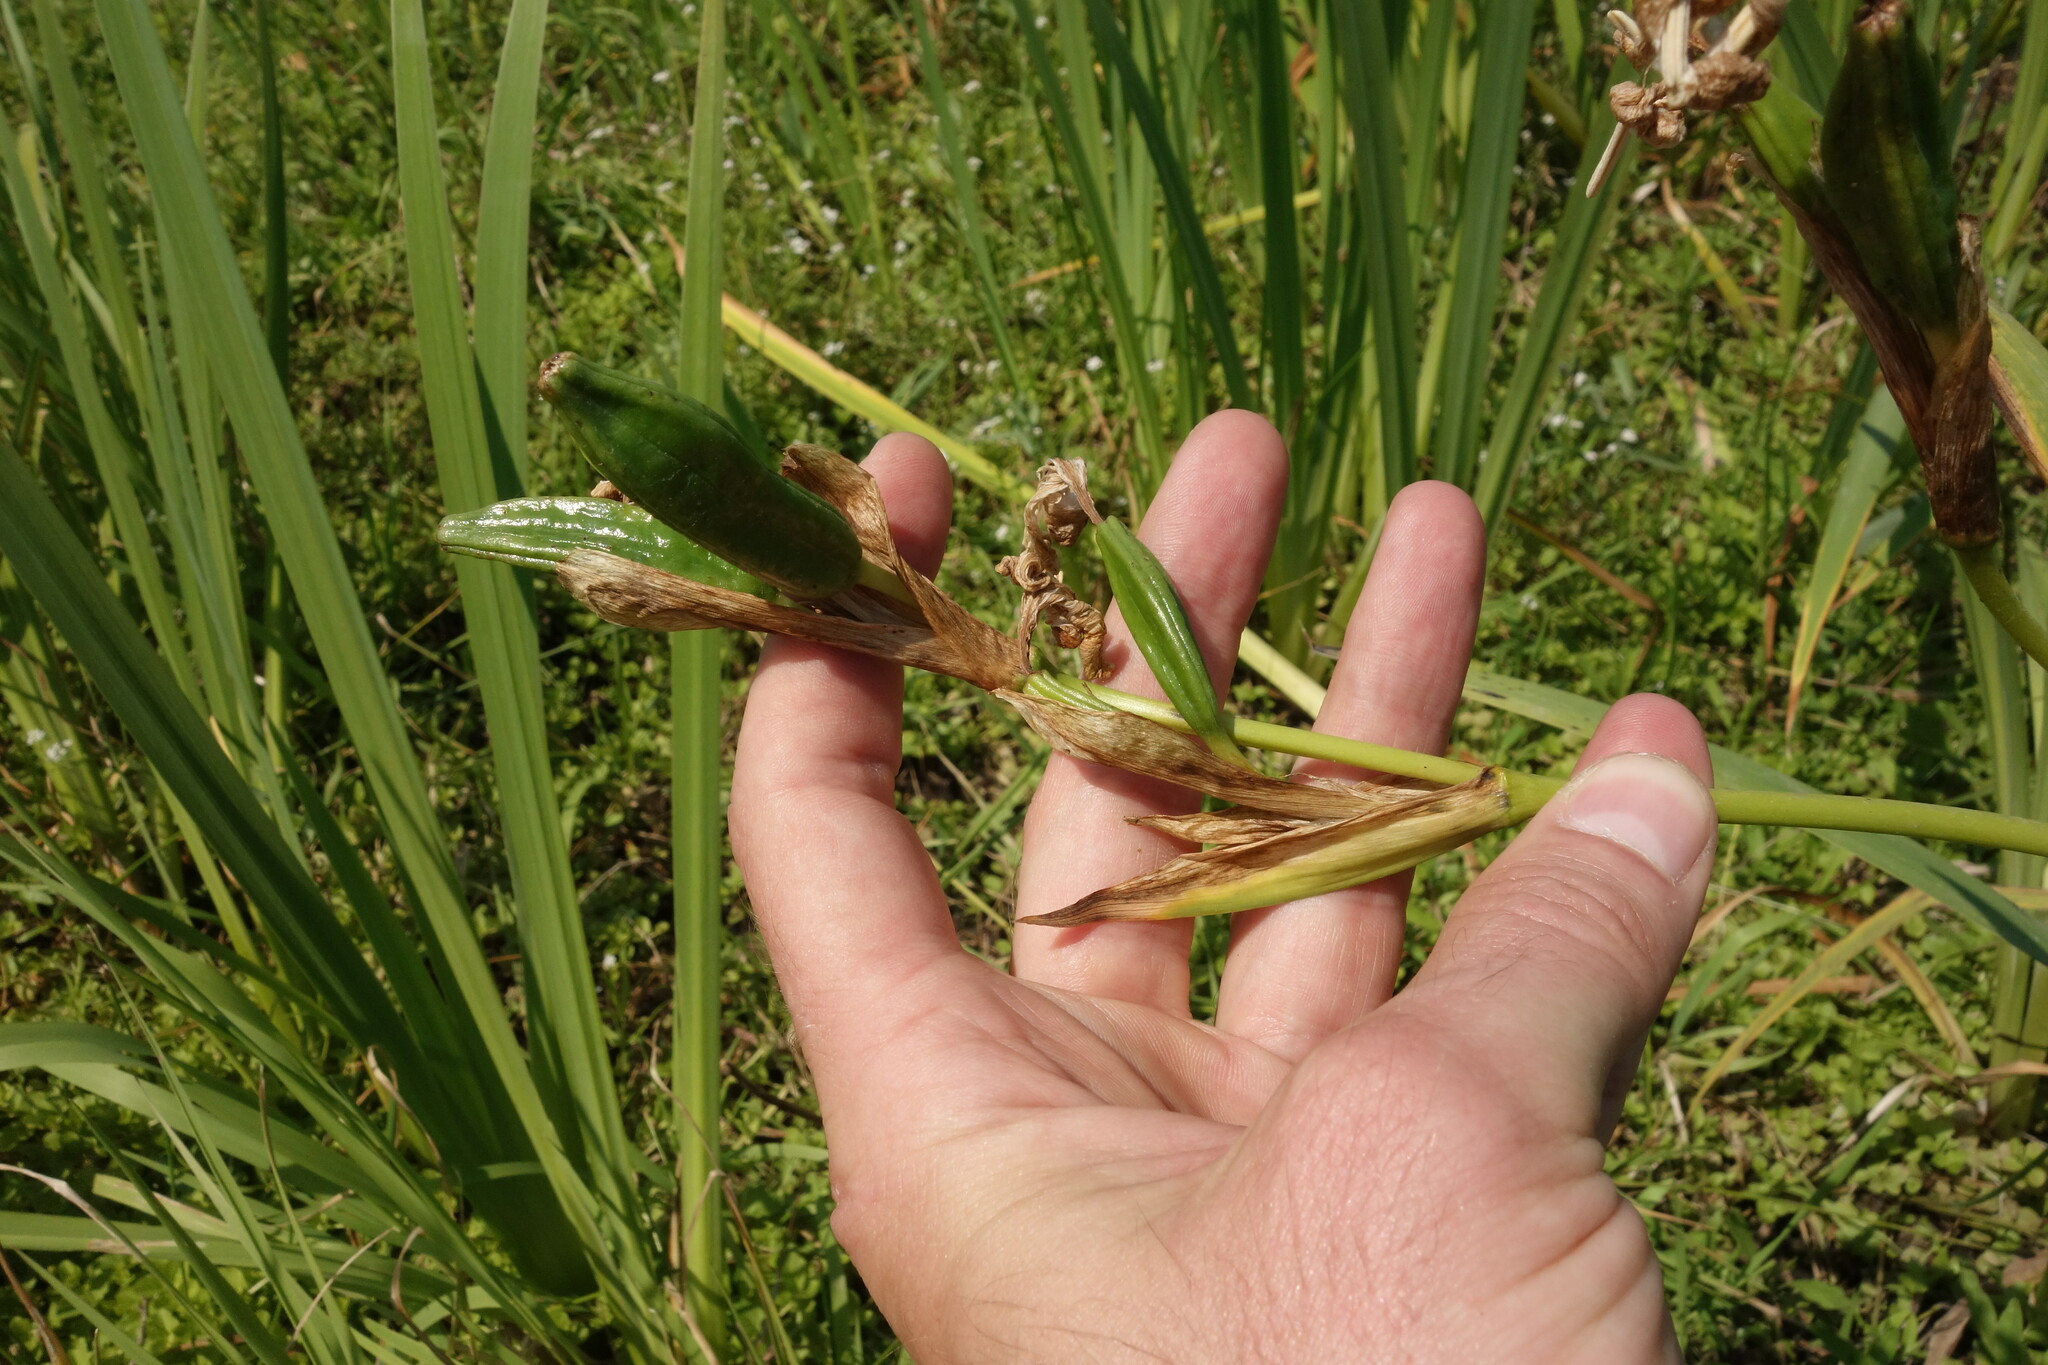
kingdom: Plantae
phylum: Tracheophyta
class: Liliopsida
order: Asparagales
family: Iridaceae
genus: Iris
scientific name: Iris pseudacorus
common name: Yellow flag
